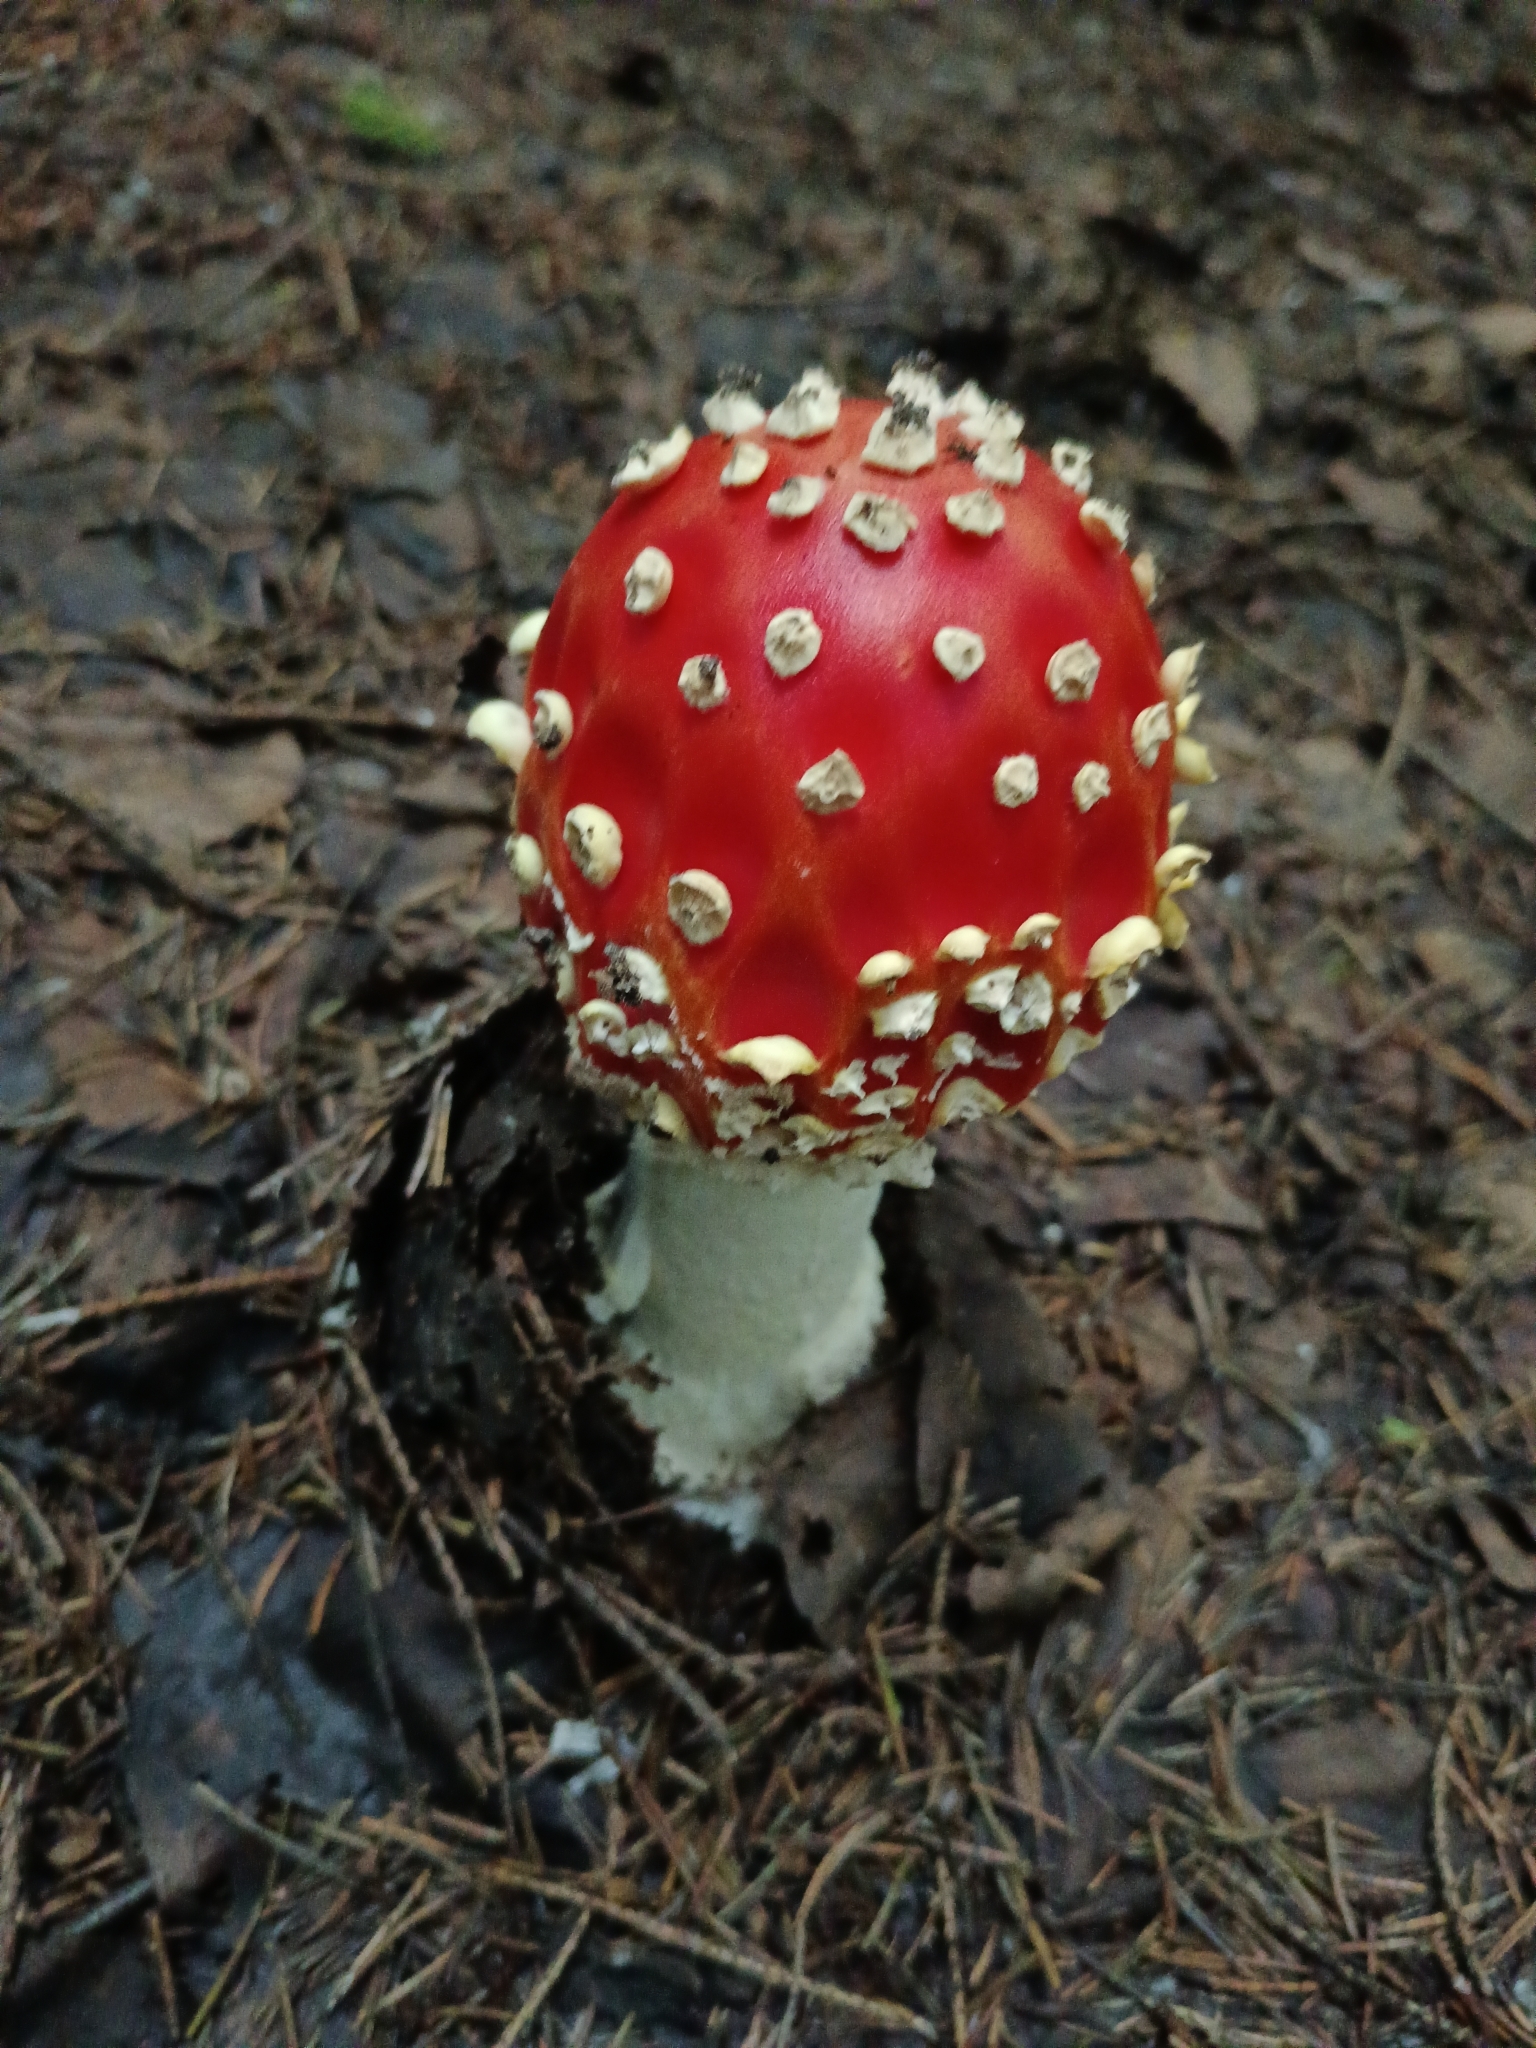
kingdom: Fungi
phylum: Basidiomycota
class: Agaricomycetes
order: Agaricales
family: Amanitaceae
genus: Amanita
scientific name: Amanita muscaria
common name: Fly agaric
